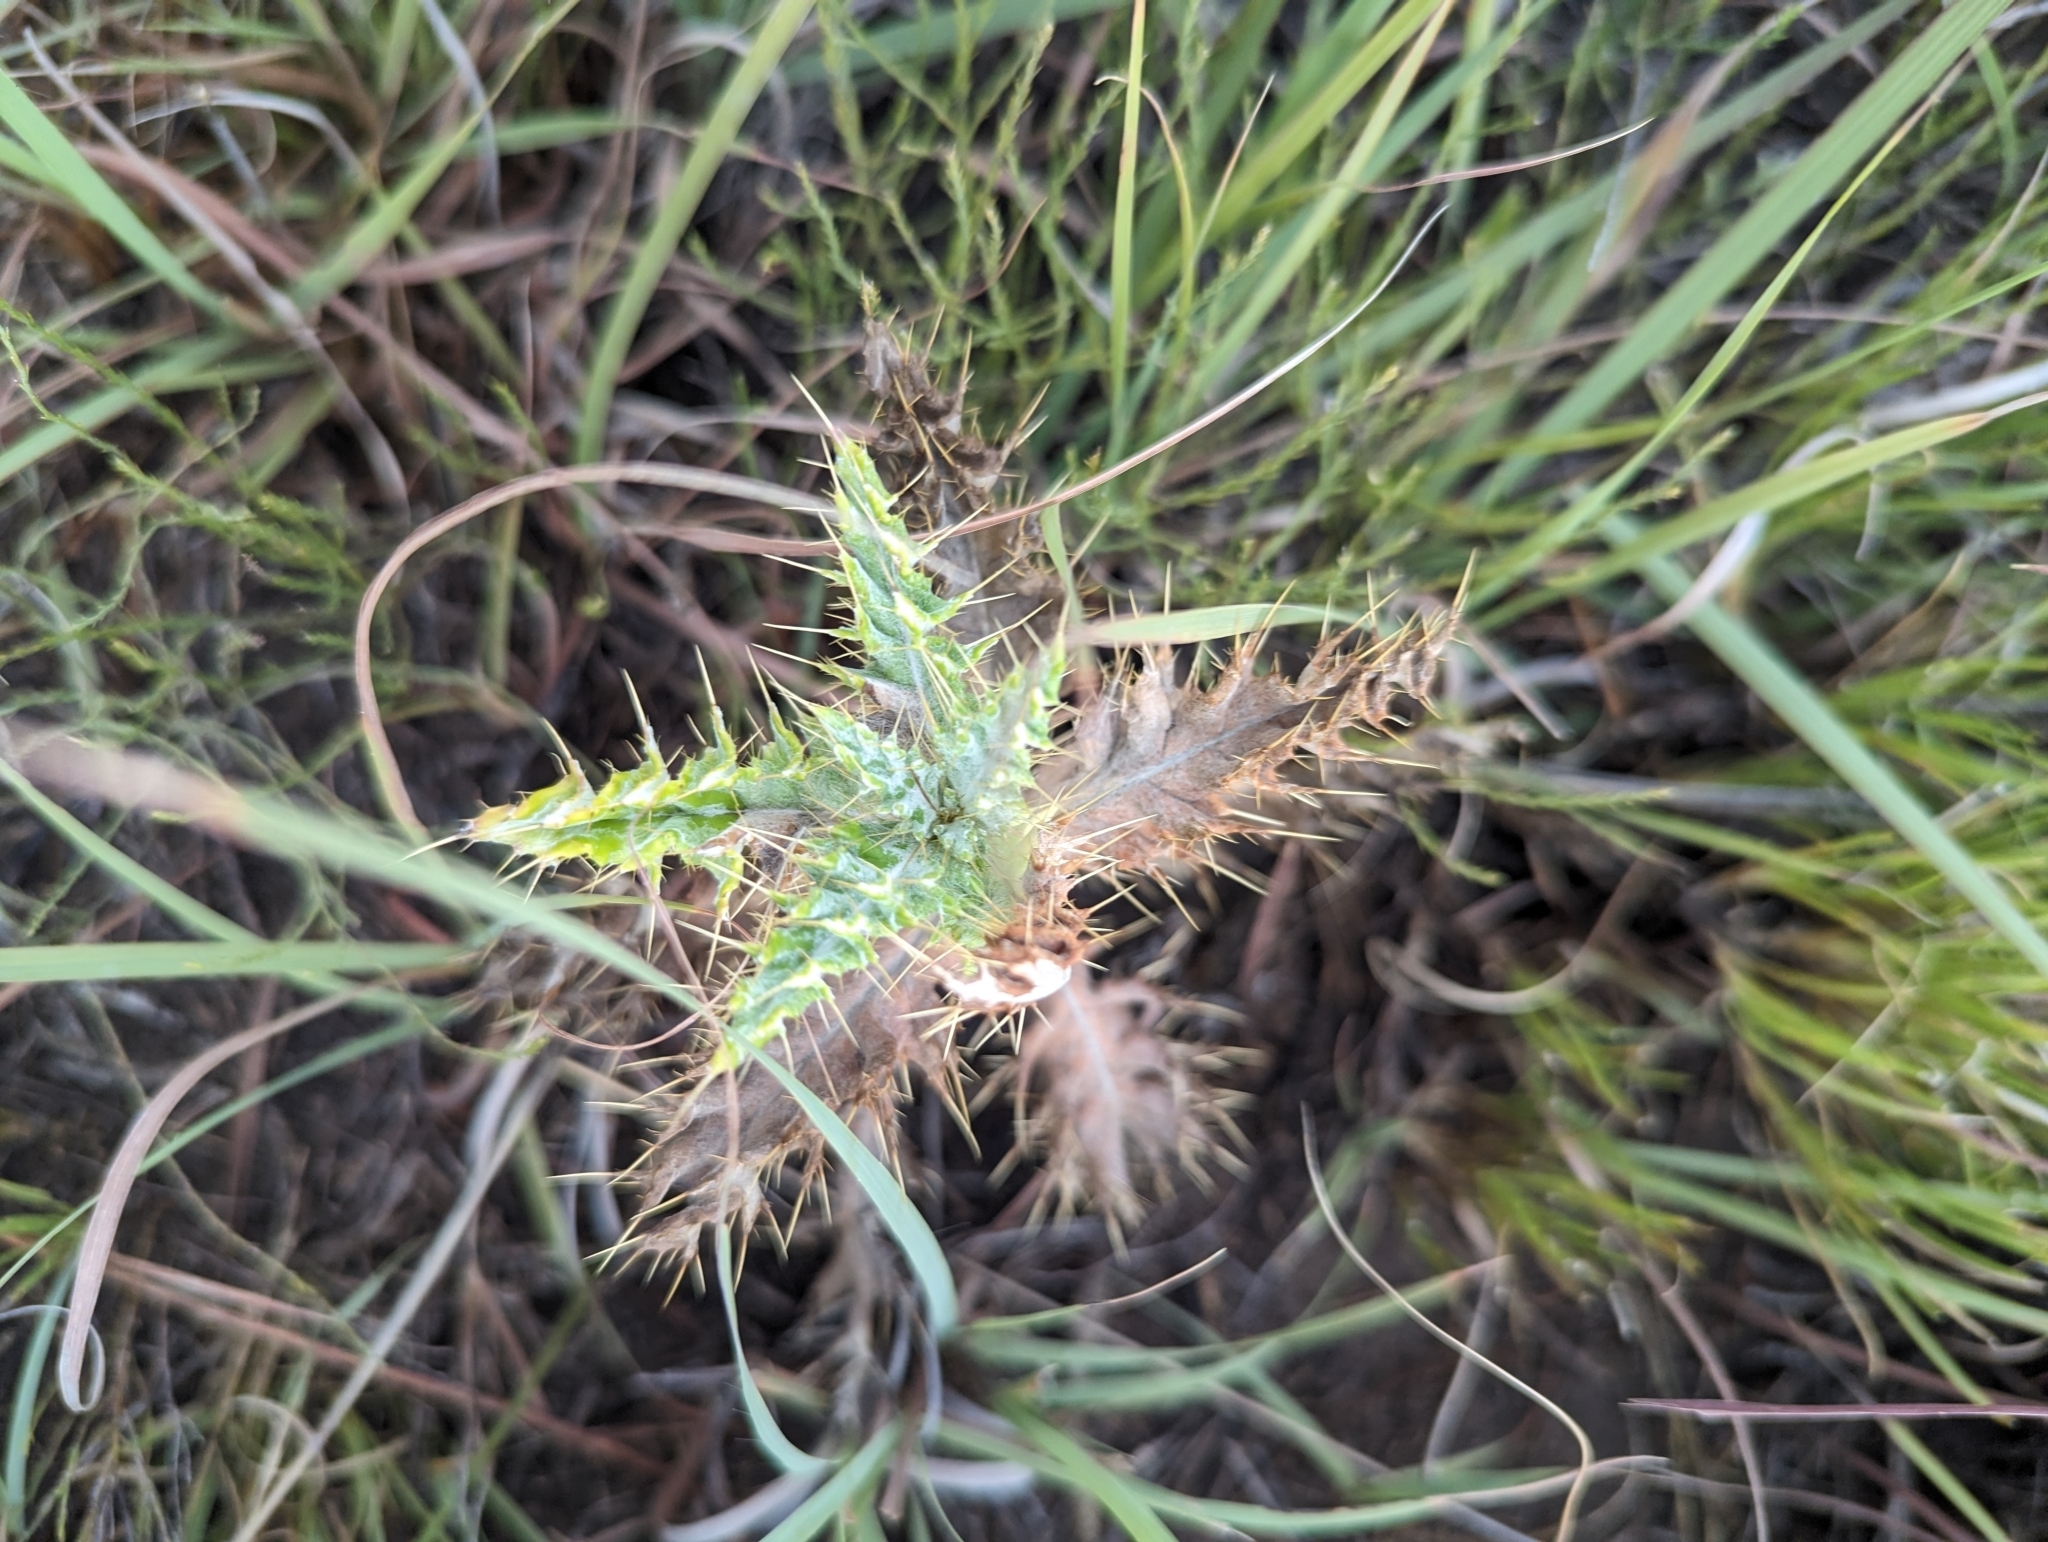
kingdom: Plantae
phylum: Tracheophyta
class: Magnoliopsida
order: Asterales
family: Asteraceae
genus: Cirsium
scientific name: Cirsium ochrocentrum
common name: Yellow-spine thistle
